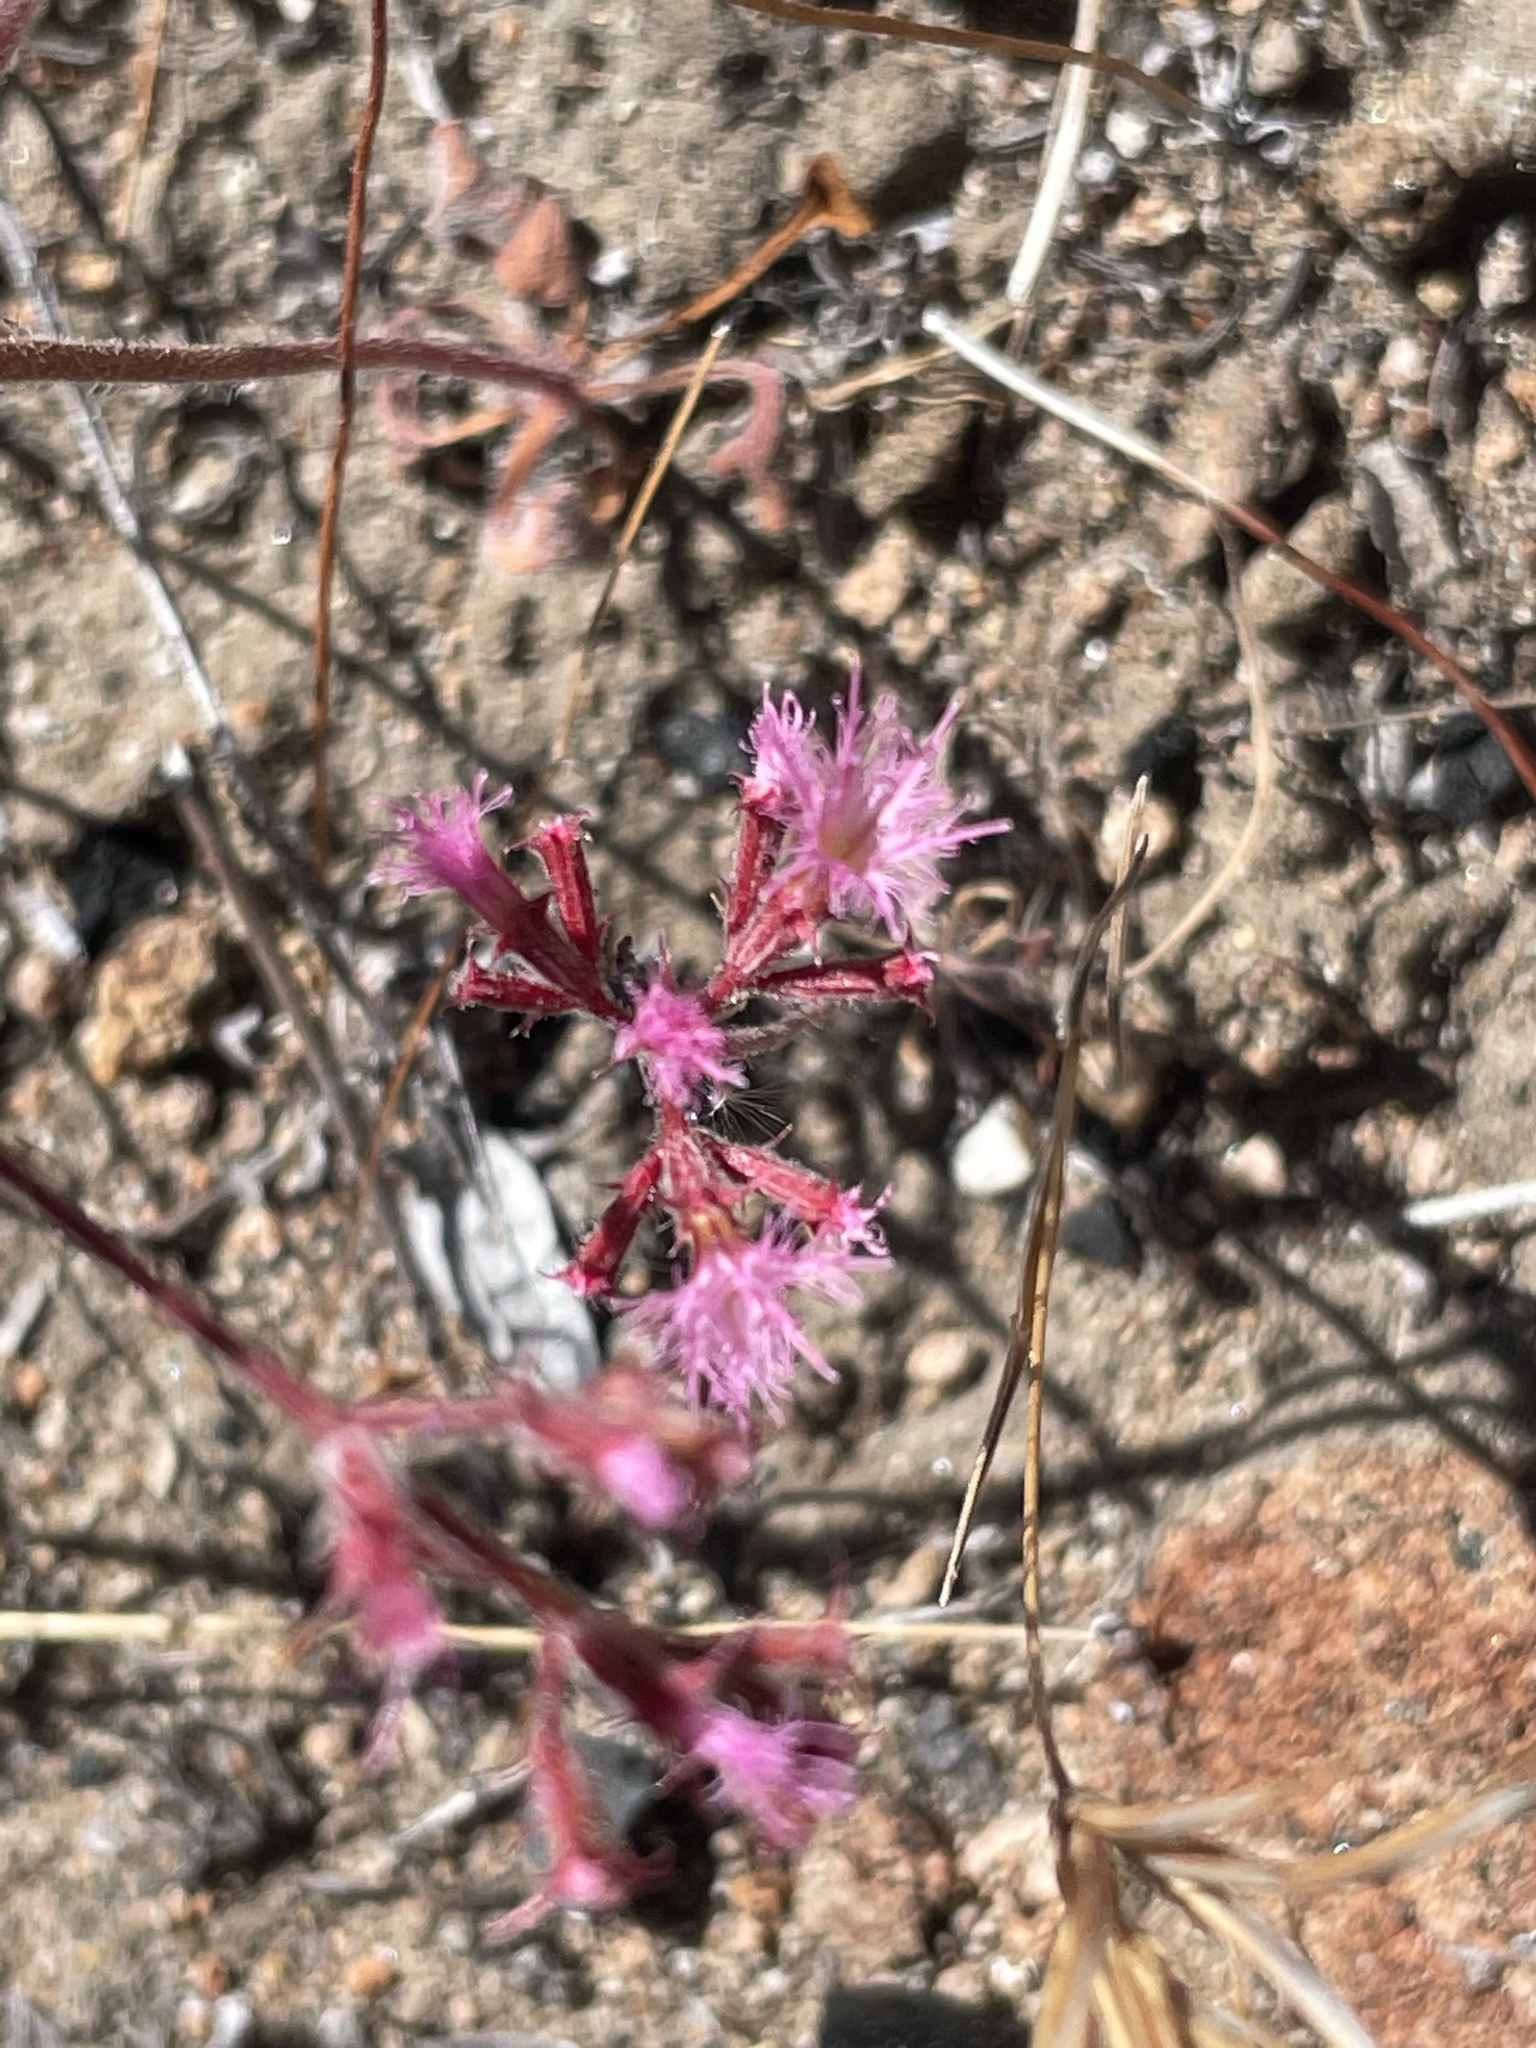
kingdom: Plantae
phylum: Tracheophyta
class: Magnoliopsida
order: Caryophyllales
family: Polygonaceae
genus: Chorizanthe
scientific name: Chorizanthe fimbriata
